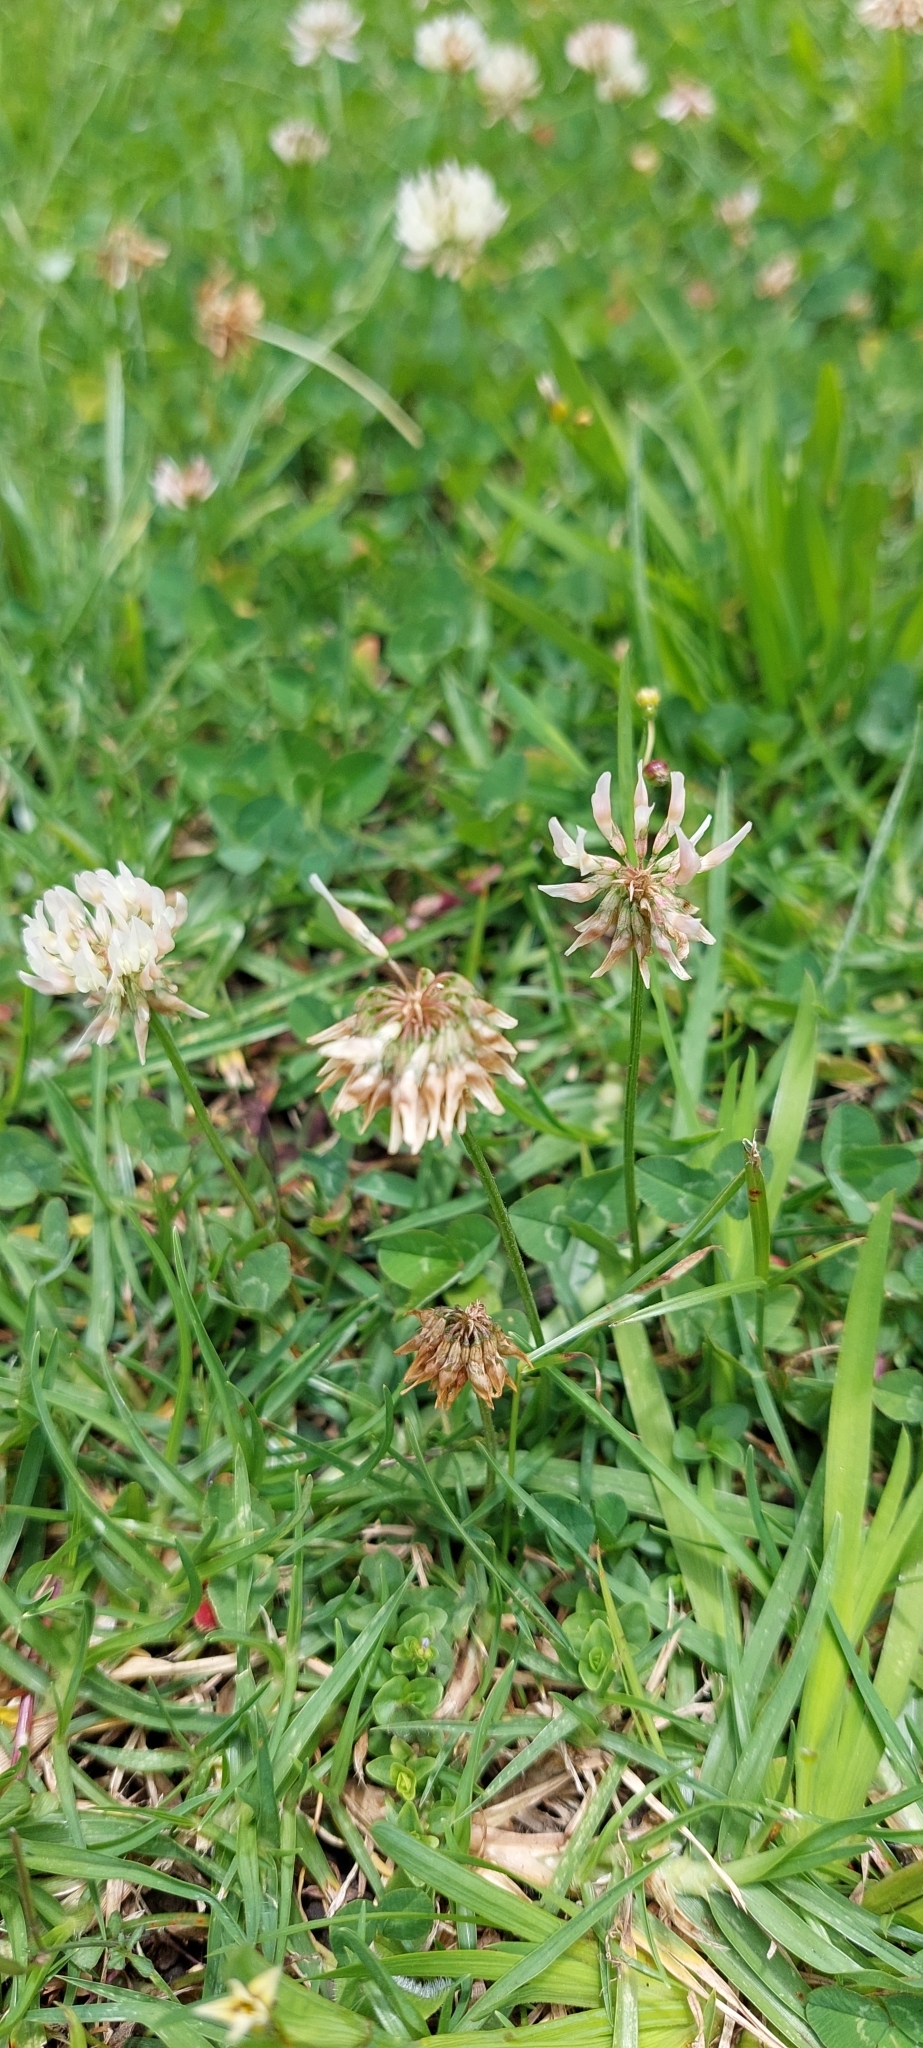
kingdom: Plantae
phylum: Tracheophyta
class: Magnoliopsida
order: Fabales
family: Fabaceae
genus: Trifolium
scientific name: Trifolium repens
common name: White clover
